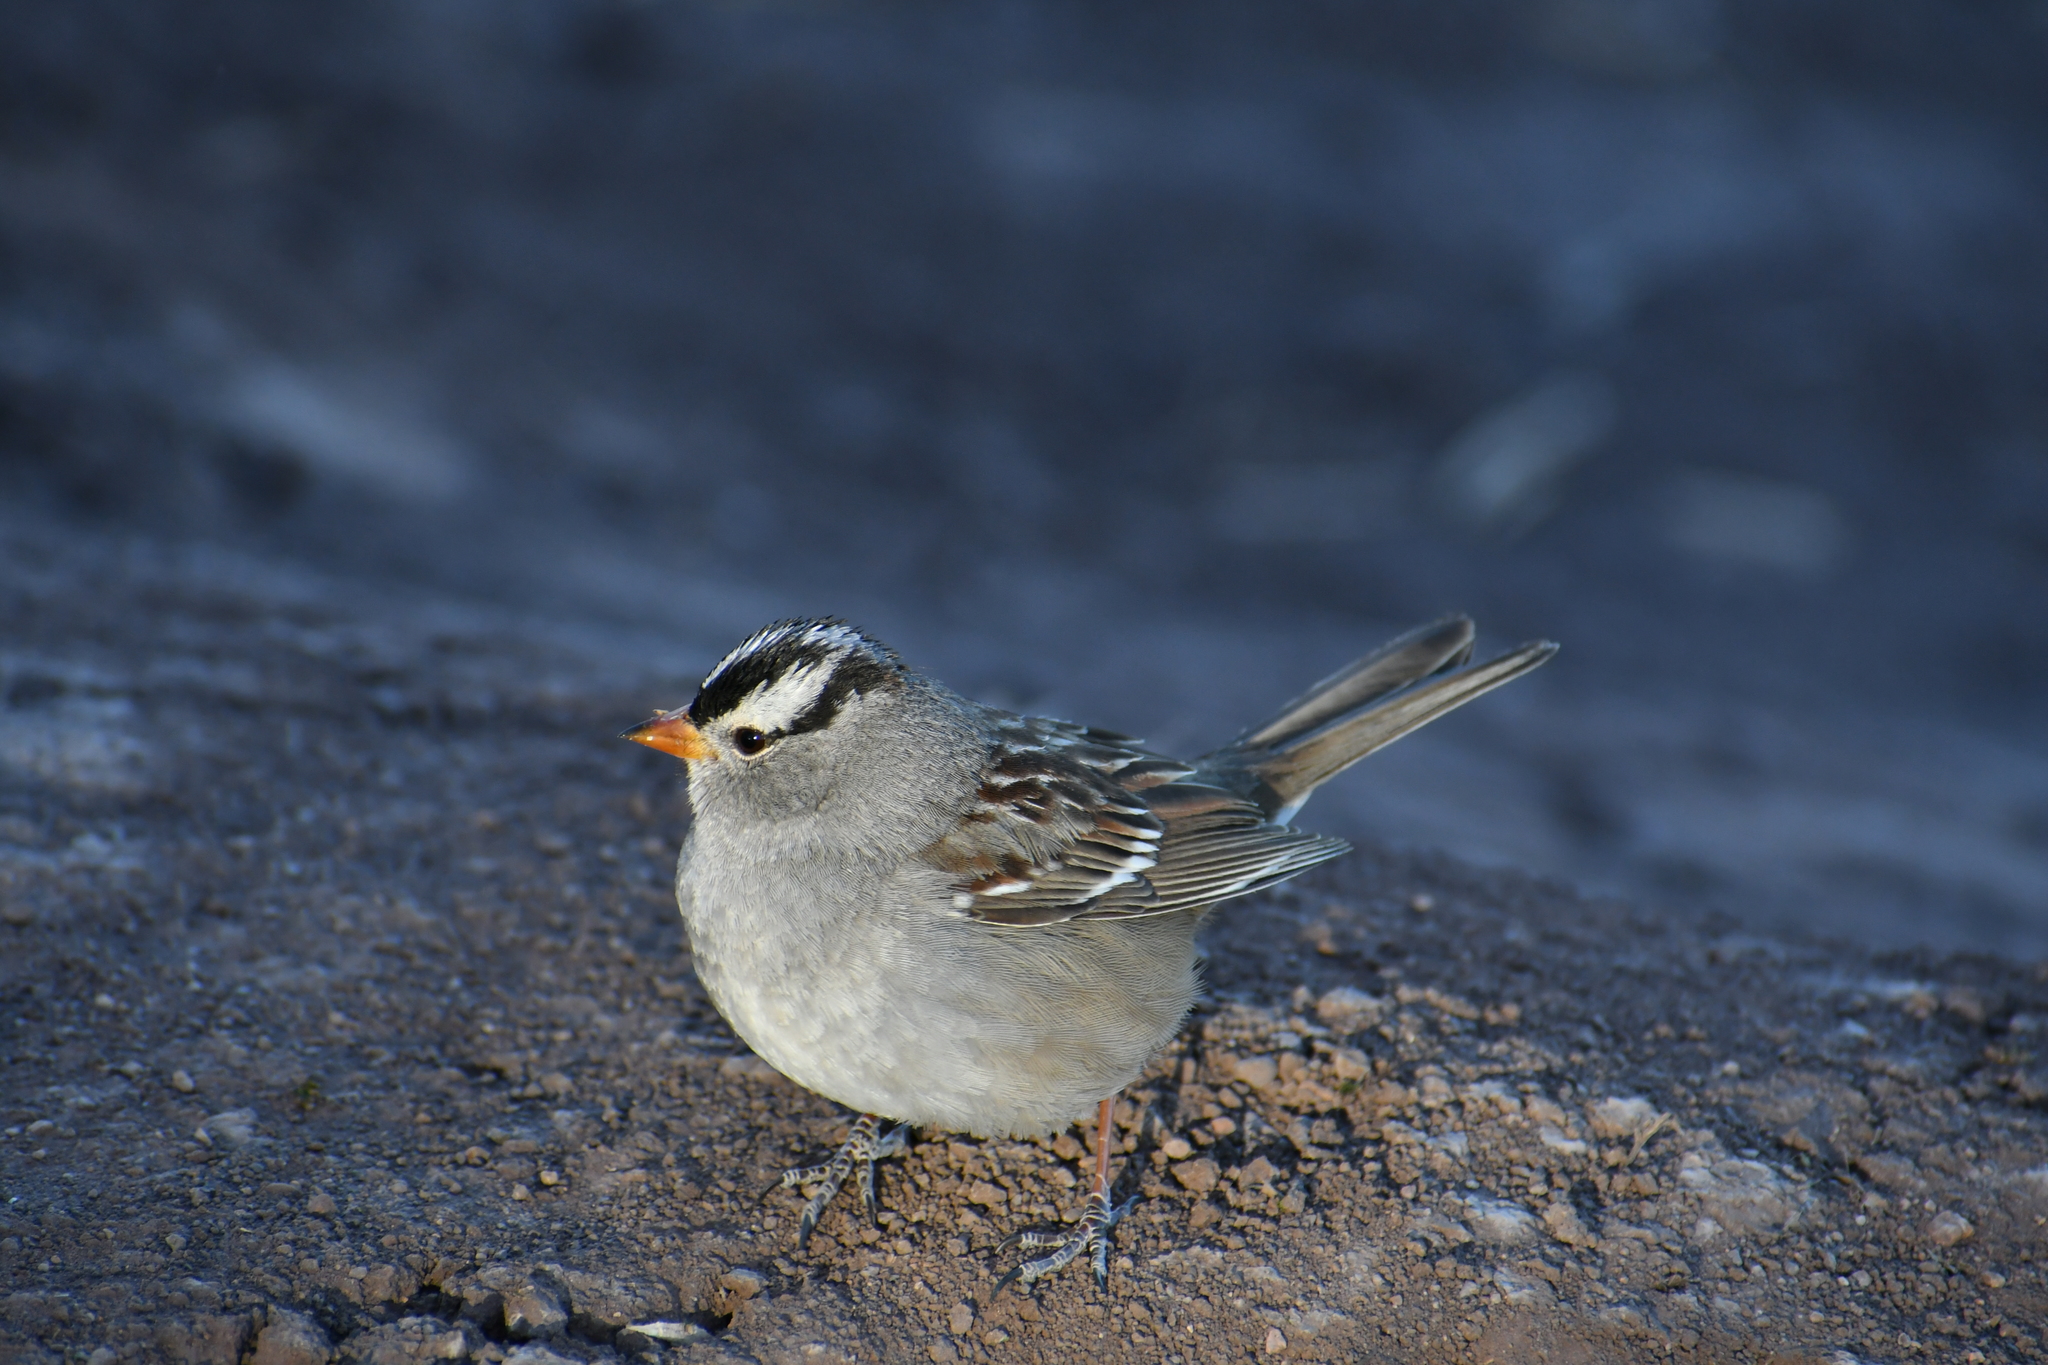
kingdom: Animalia
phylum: Chordata
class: Aves
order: Passeriformes
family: Passerellidae
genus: Zonotrichia
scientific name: Zonotrichia leucophrys
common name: White-crowned sparrow
